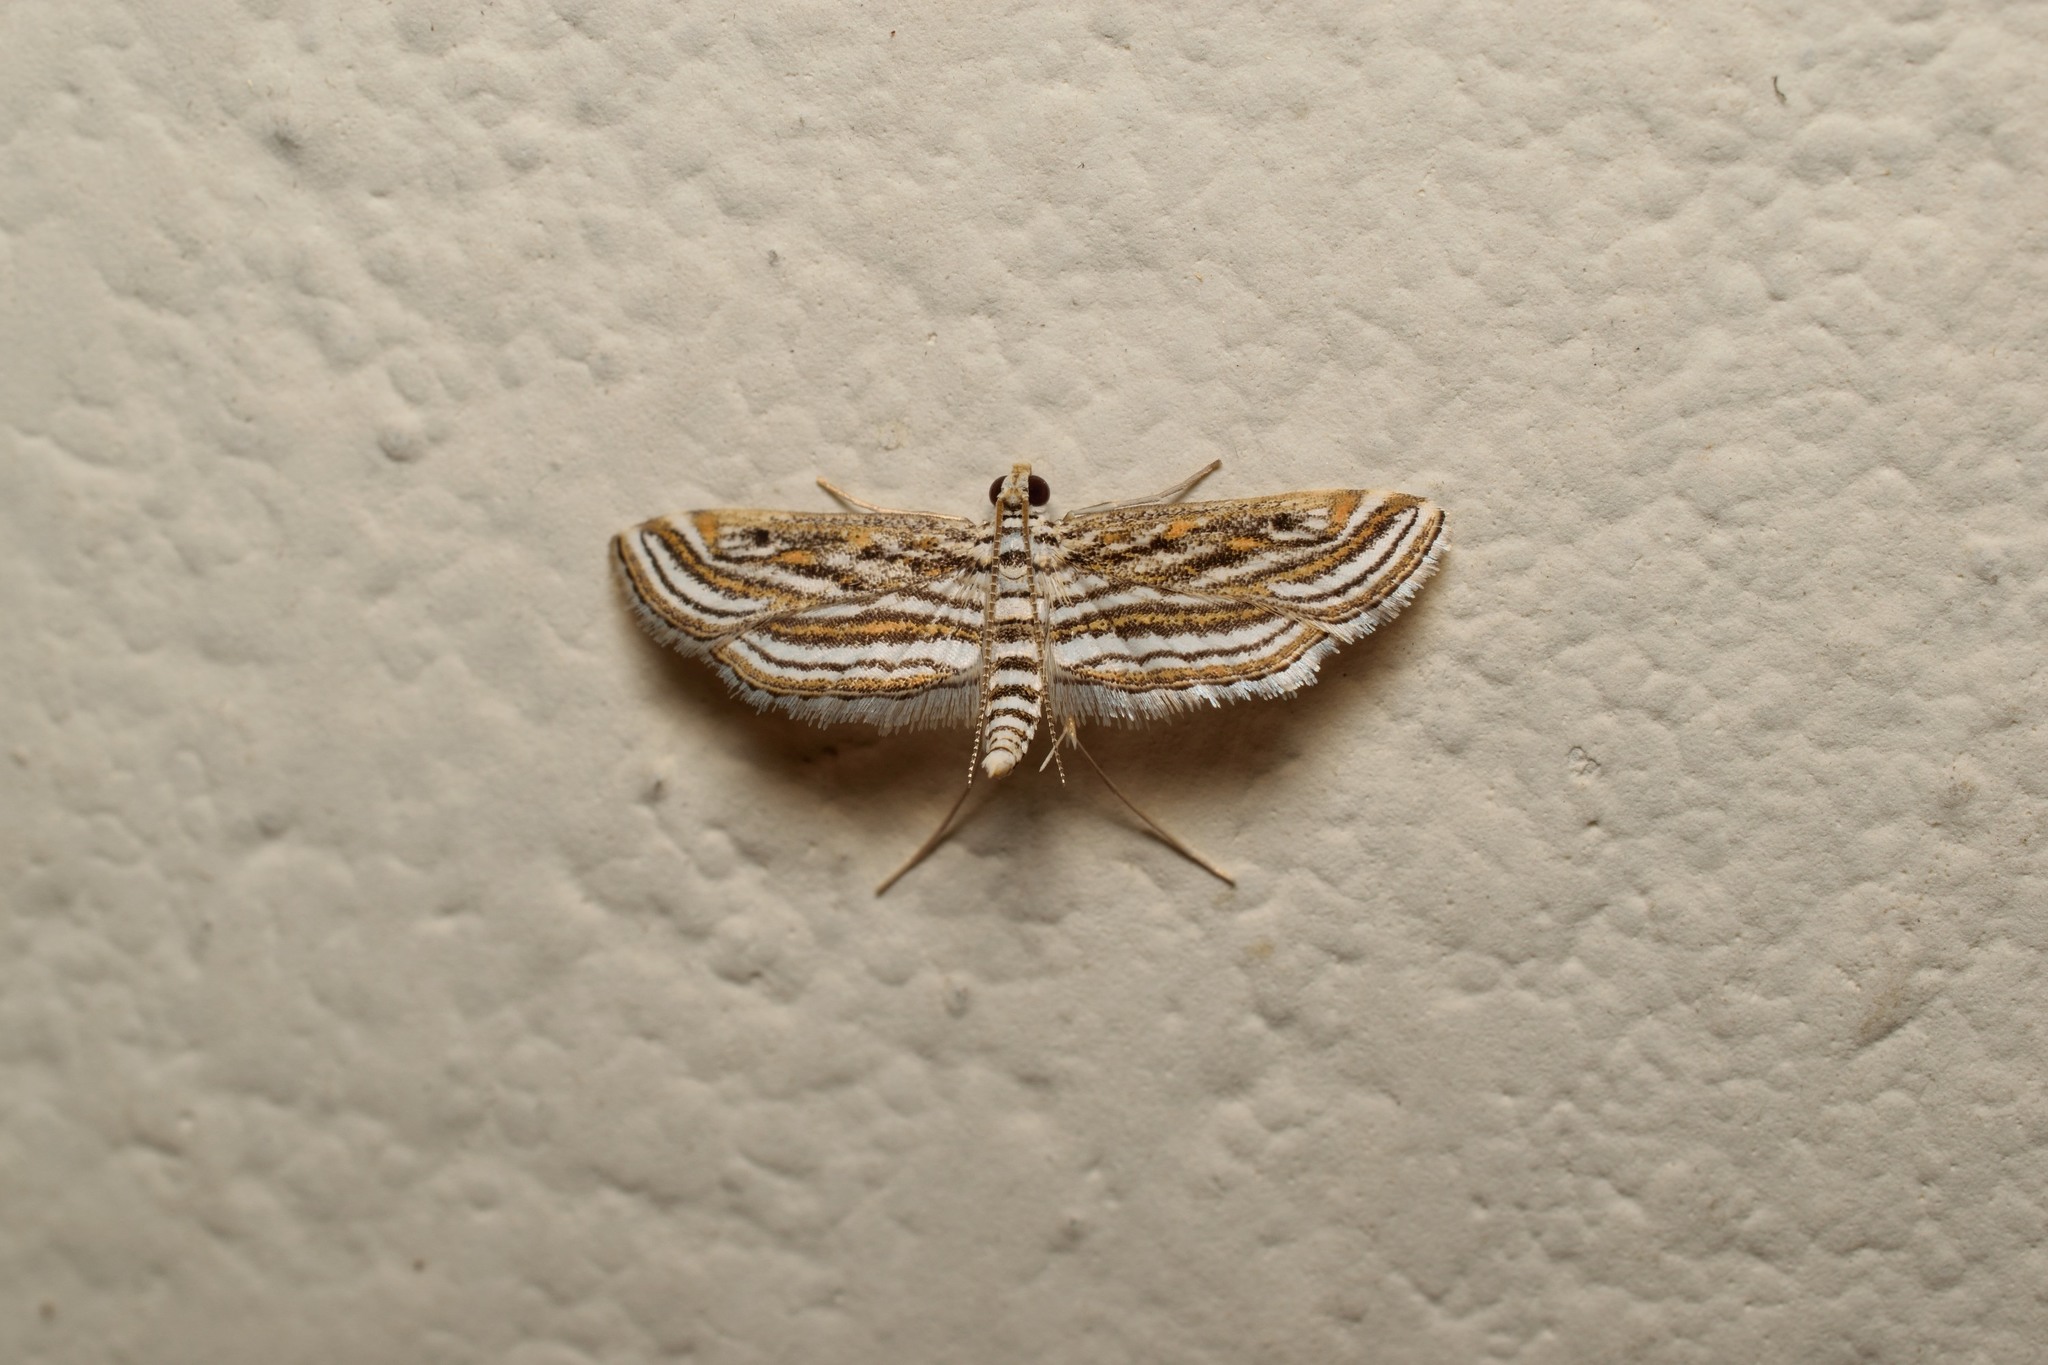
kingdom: Animalia
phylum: Arthropoda
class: Insecta
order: Lepidoptera
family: Crambidae
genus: Parapoynx
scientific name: Parapoynx fluctuosalis
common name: Moth
